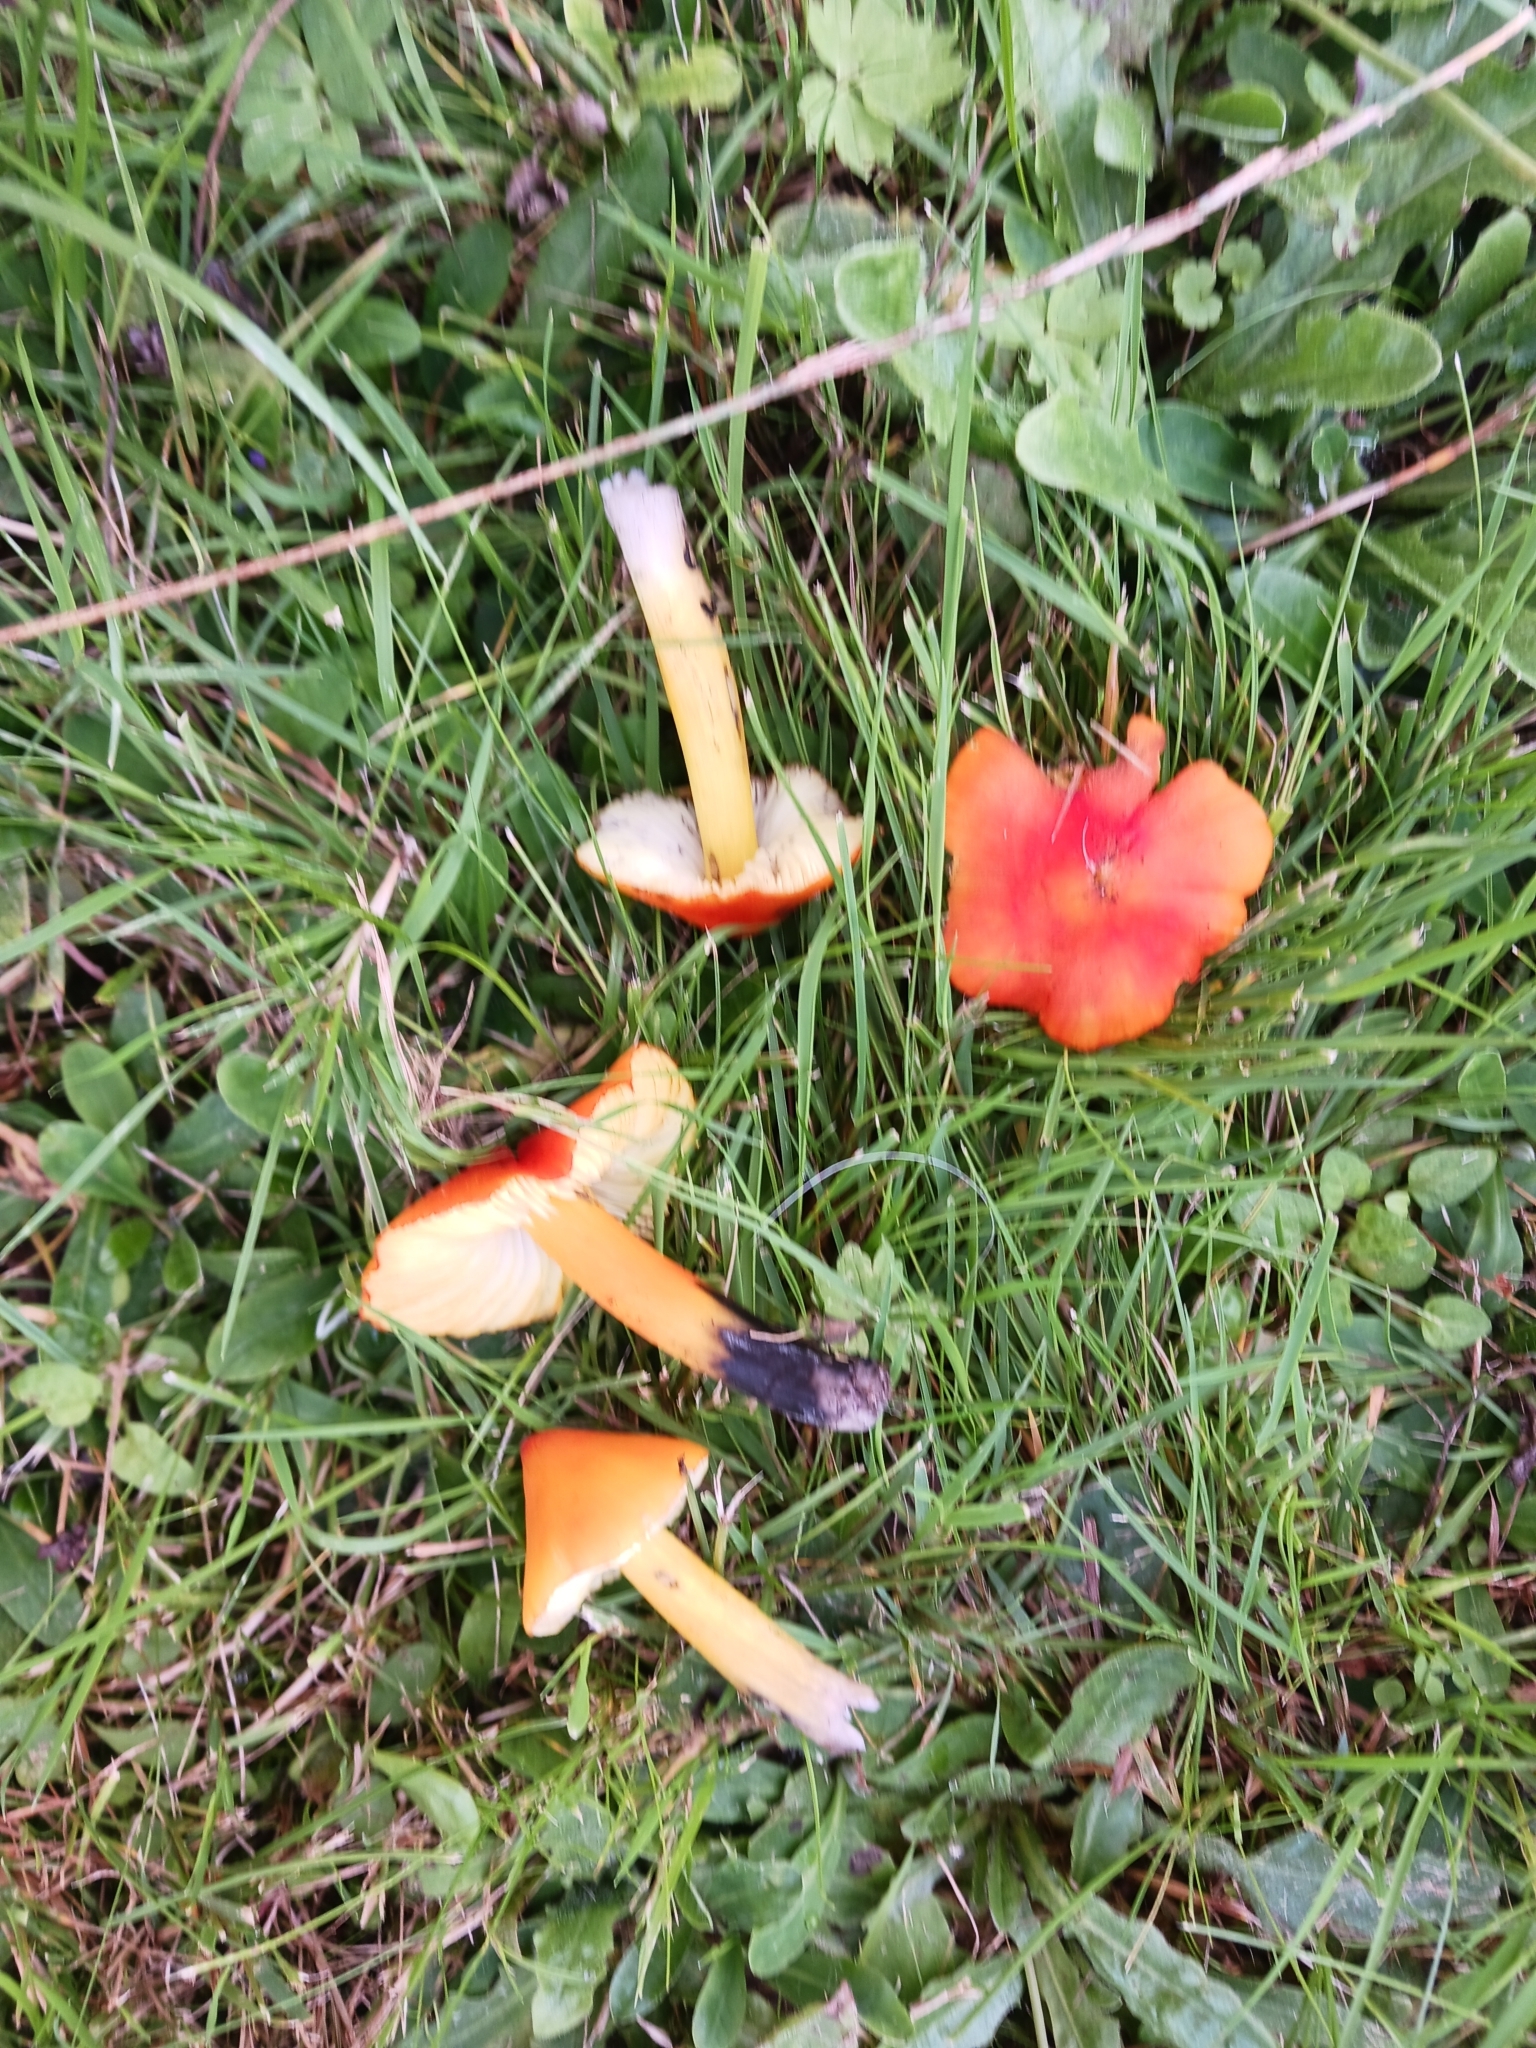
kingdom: Fungi
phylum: Basidiomycota
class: Agaricomycetes
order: Agaricales
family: Hygrophoraceae
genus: Hygrocybe
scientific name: Hygrocybe conica
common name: Blackening wax-cap
